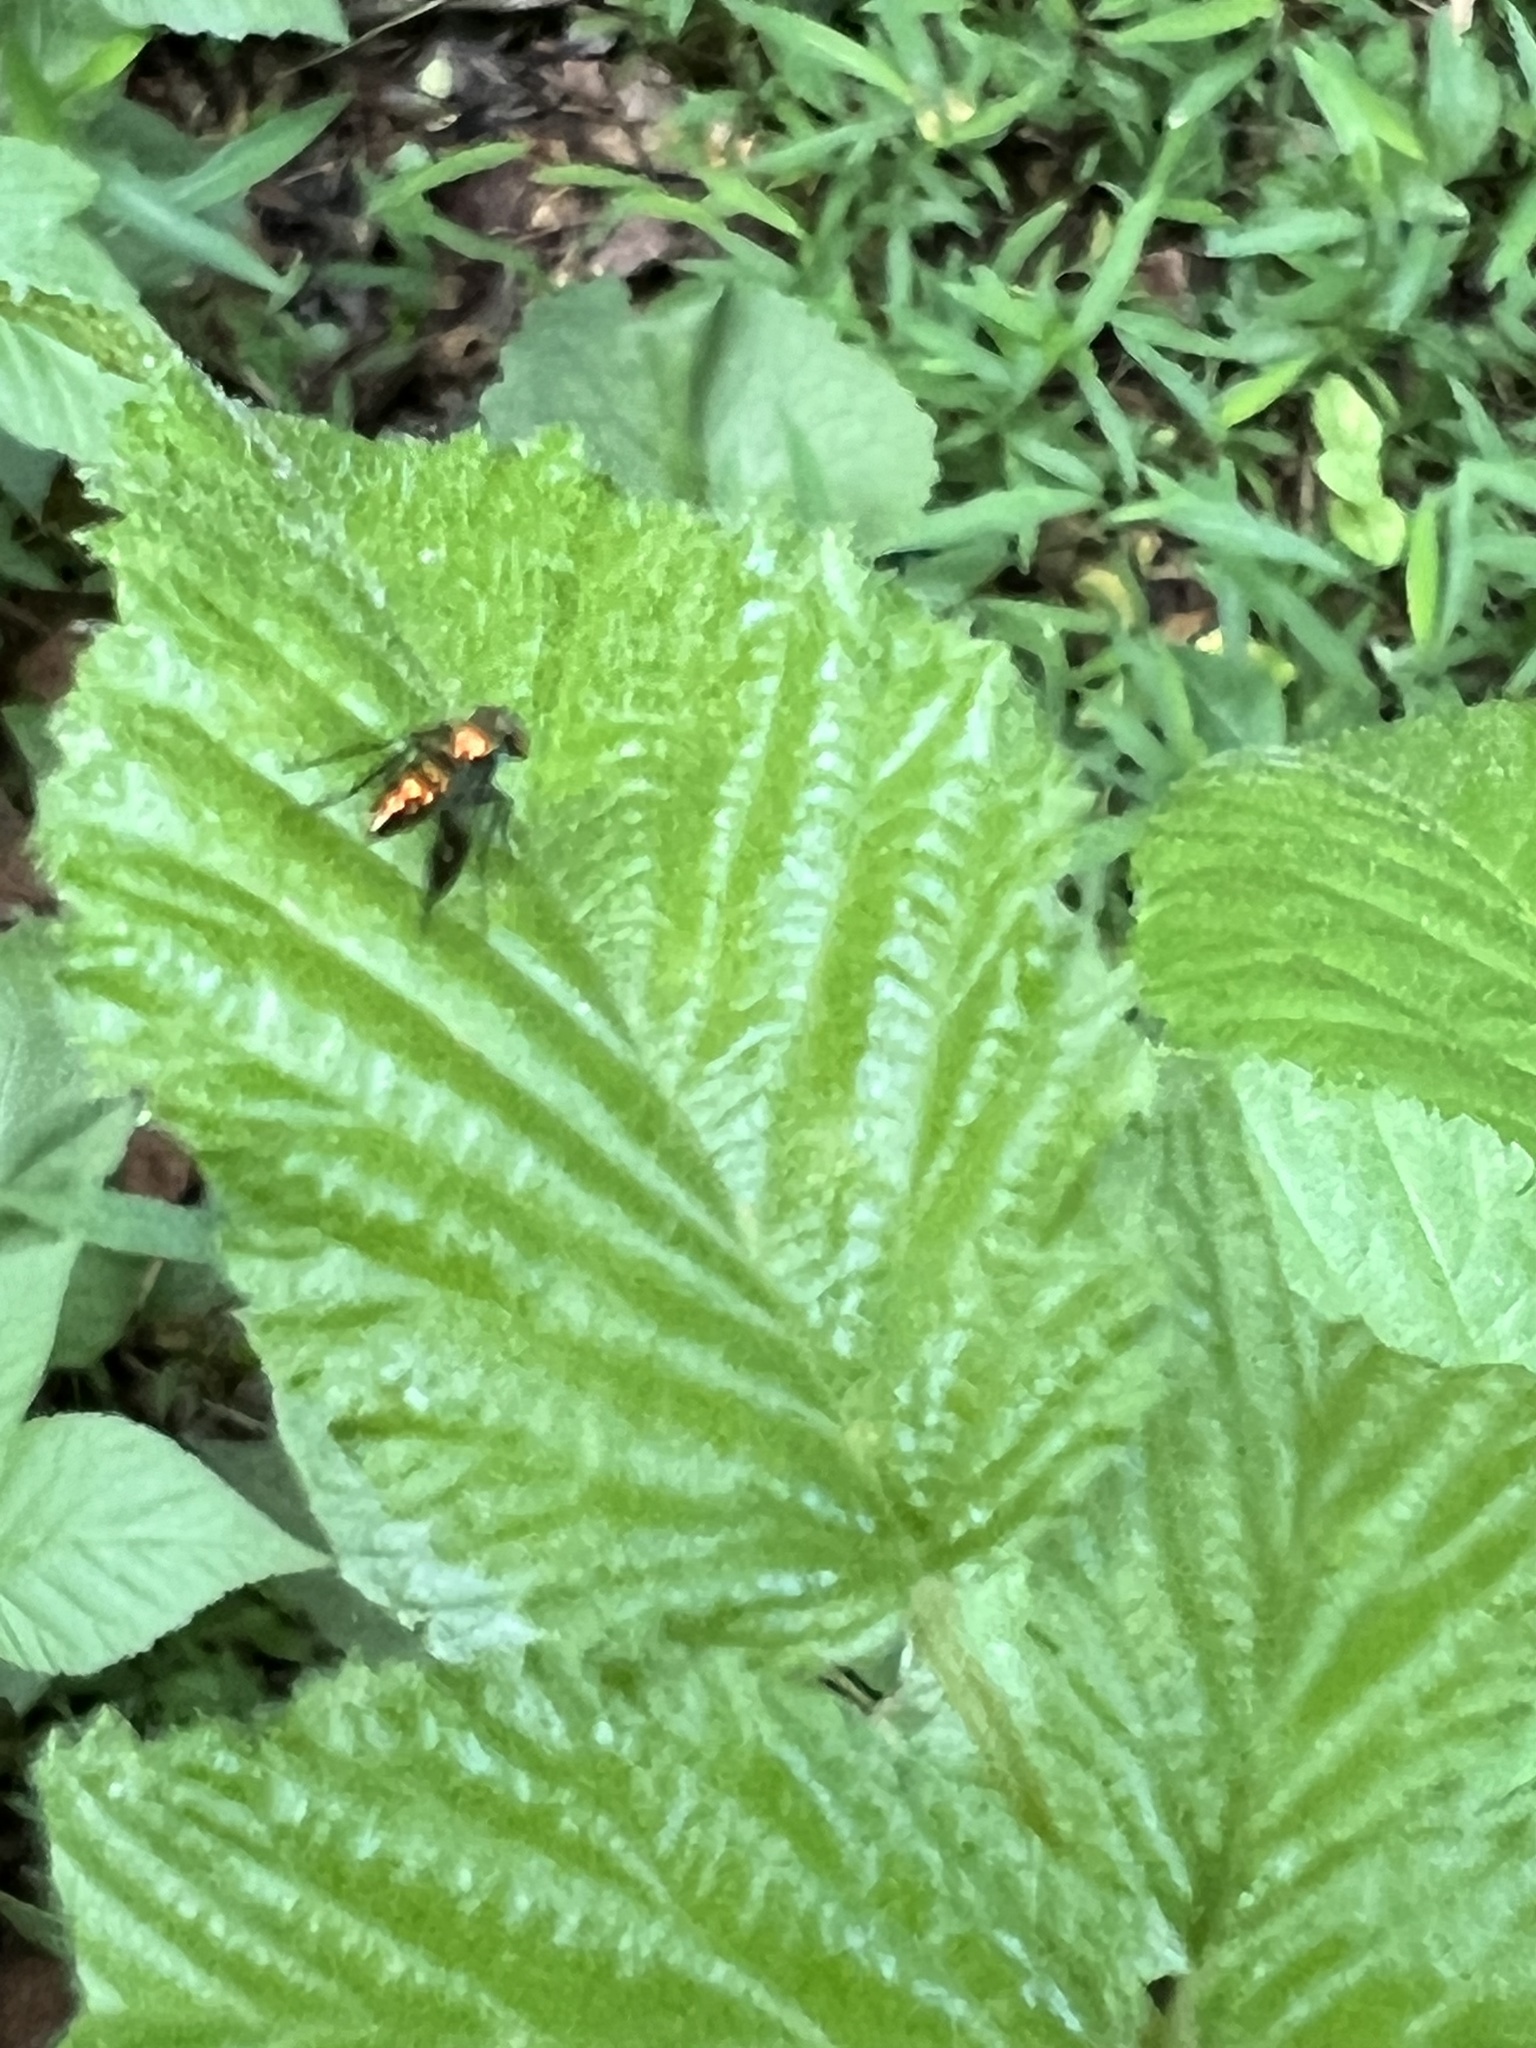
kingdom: Animalia
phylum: Arthropoda
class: Insecta
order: Diptera
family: Dolichopodidae
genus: Condylostylus
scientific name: Condylostylus patibulatus
